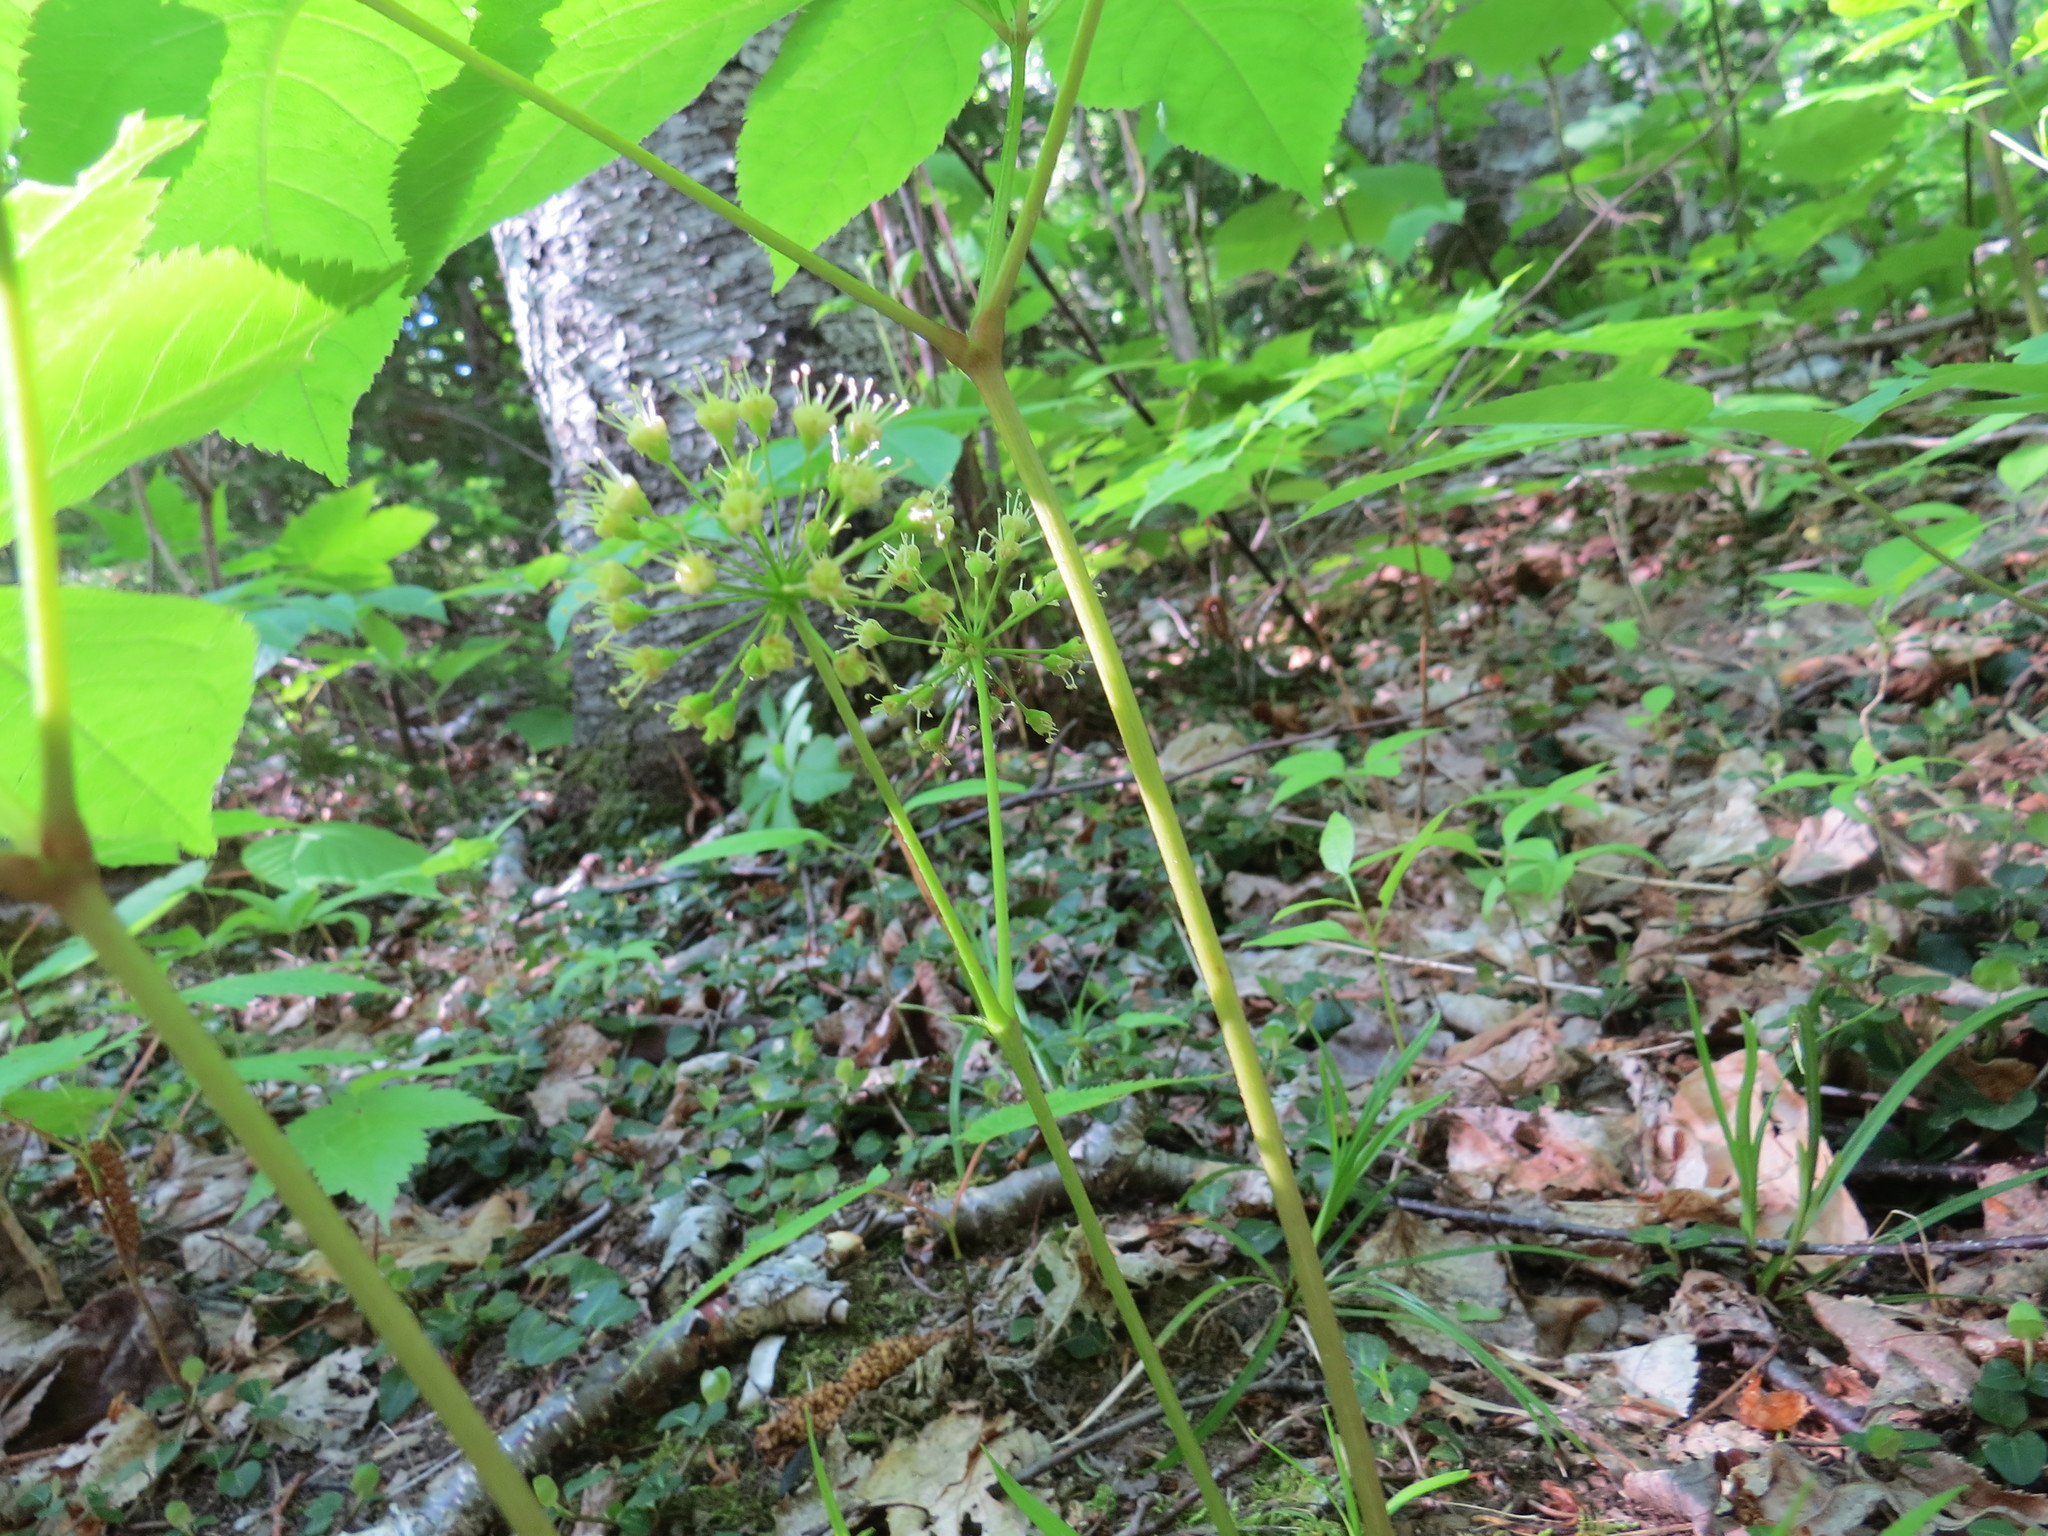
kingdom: Plantae
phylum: Tracheophyta
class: Magnoliopsida
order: Apiales
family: Araliaceae
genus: Aralia
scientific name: Aralia nudicaulis
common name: Wild sarsaparilla
